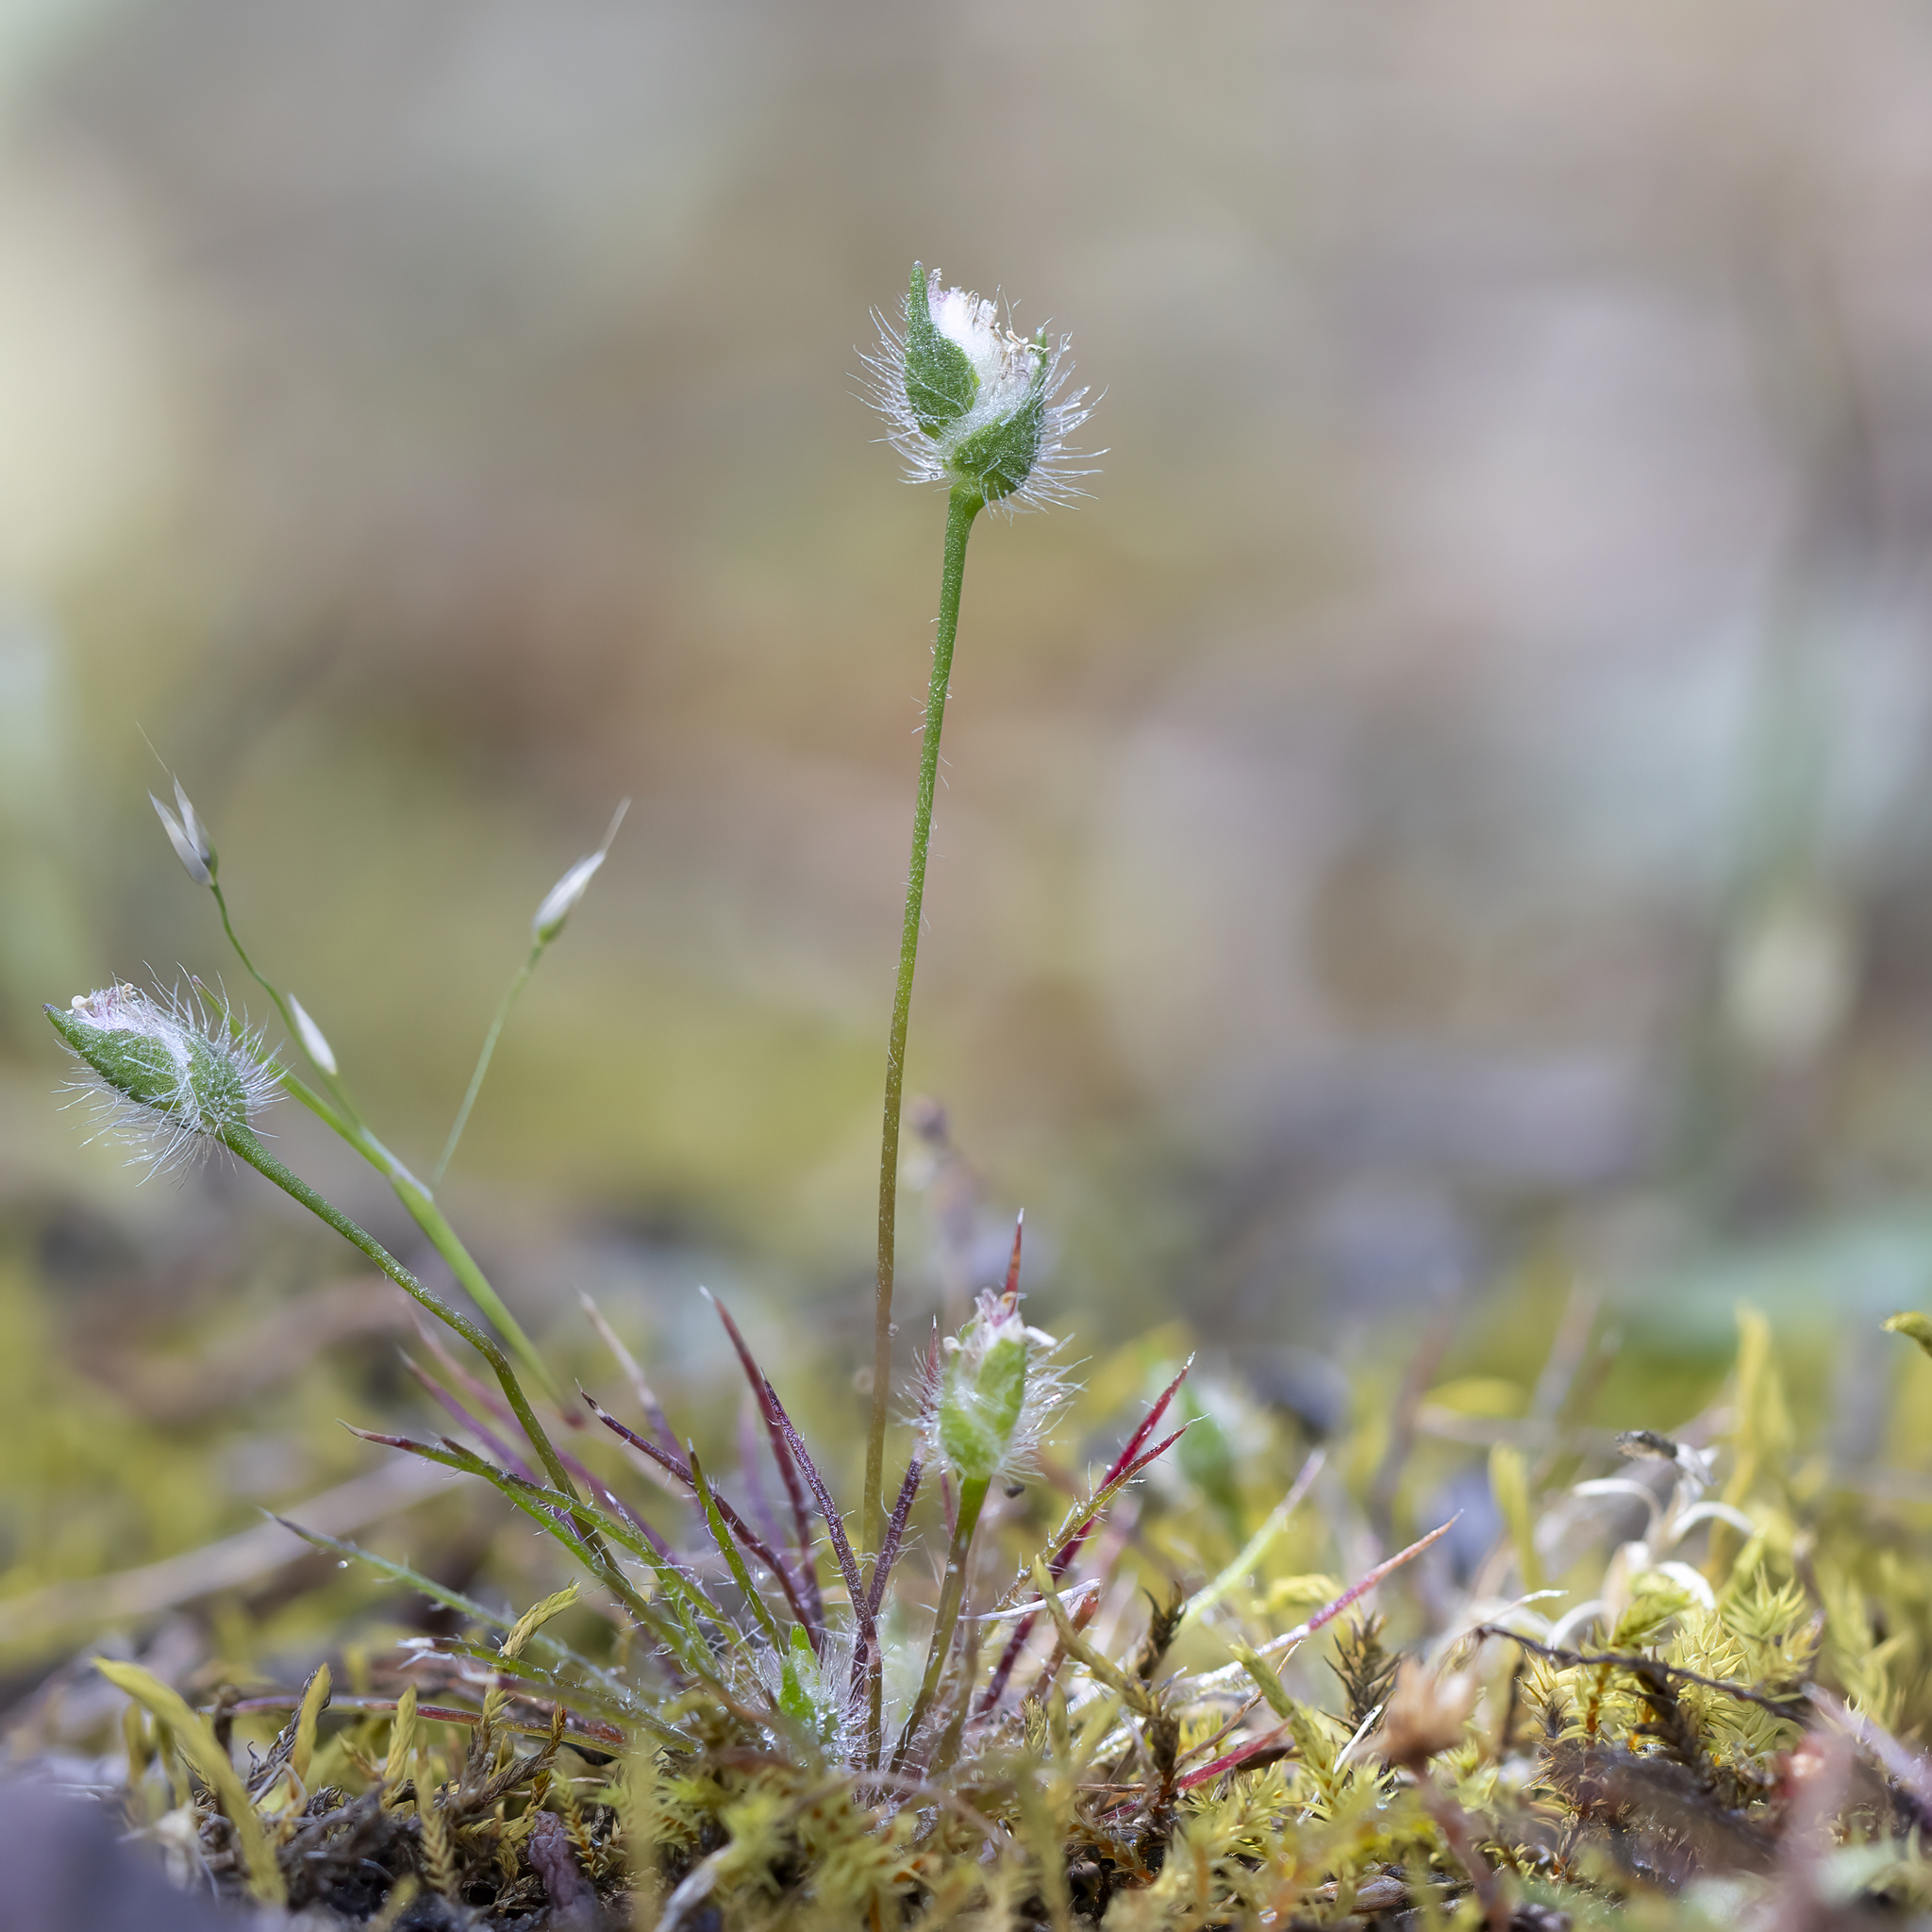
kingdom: Plantae
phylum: Tracheophyta
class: Liliopsida
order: Poales
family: Restionaceae
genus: Centrolepis
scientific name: Centrolepis strigosa
